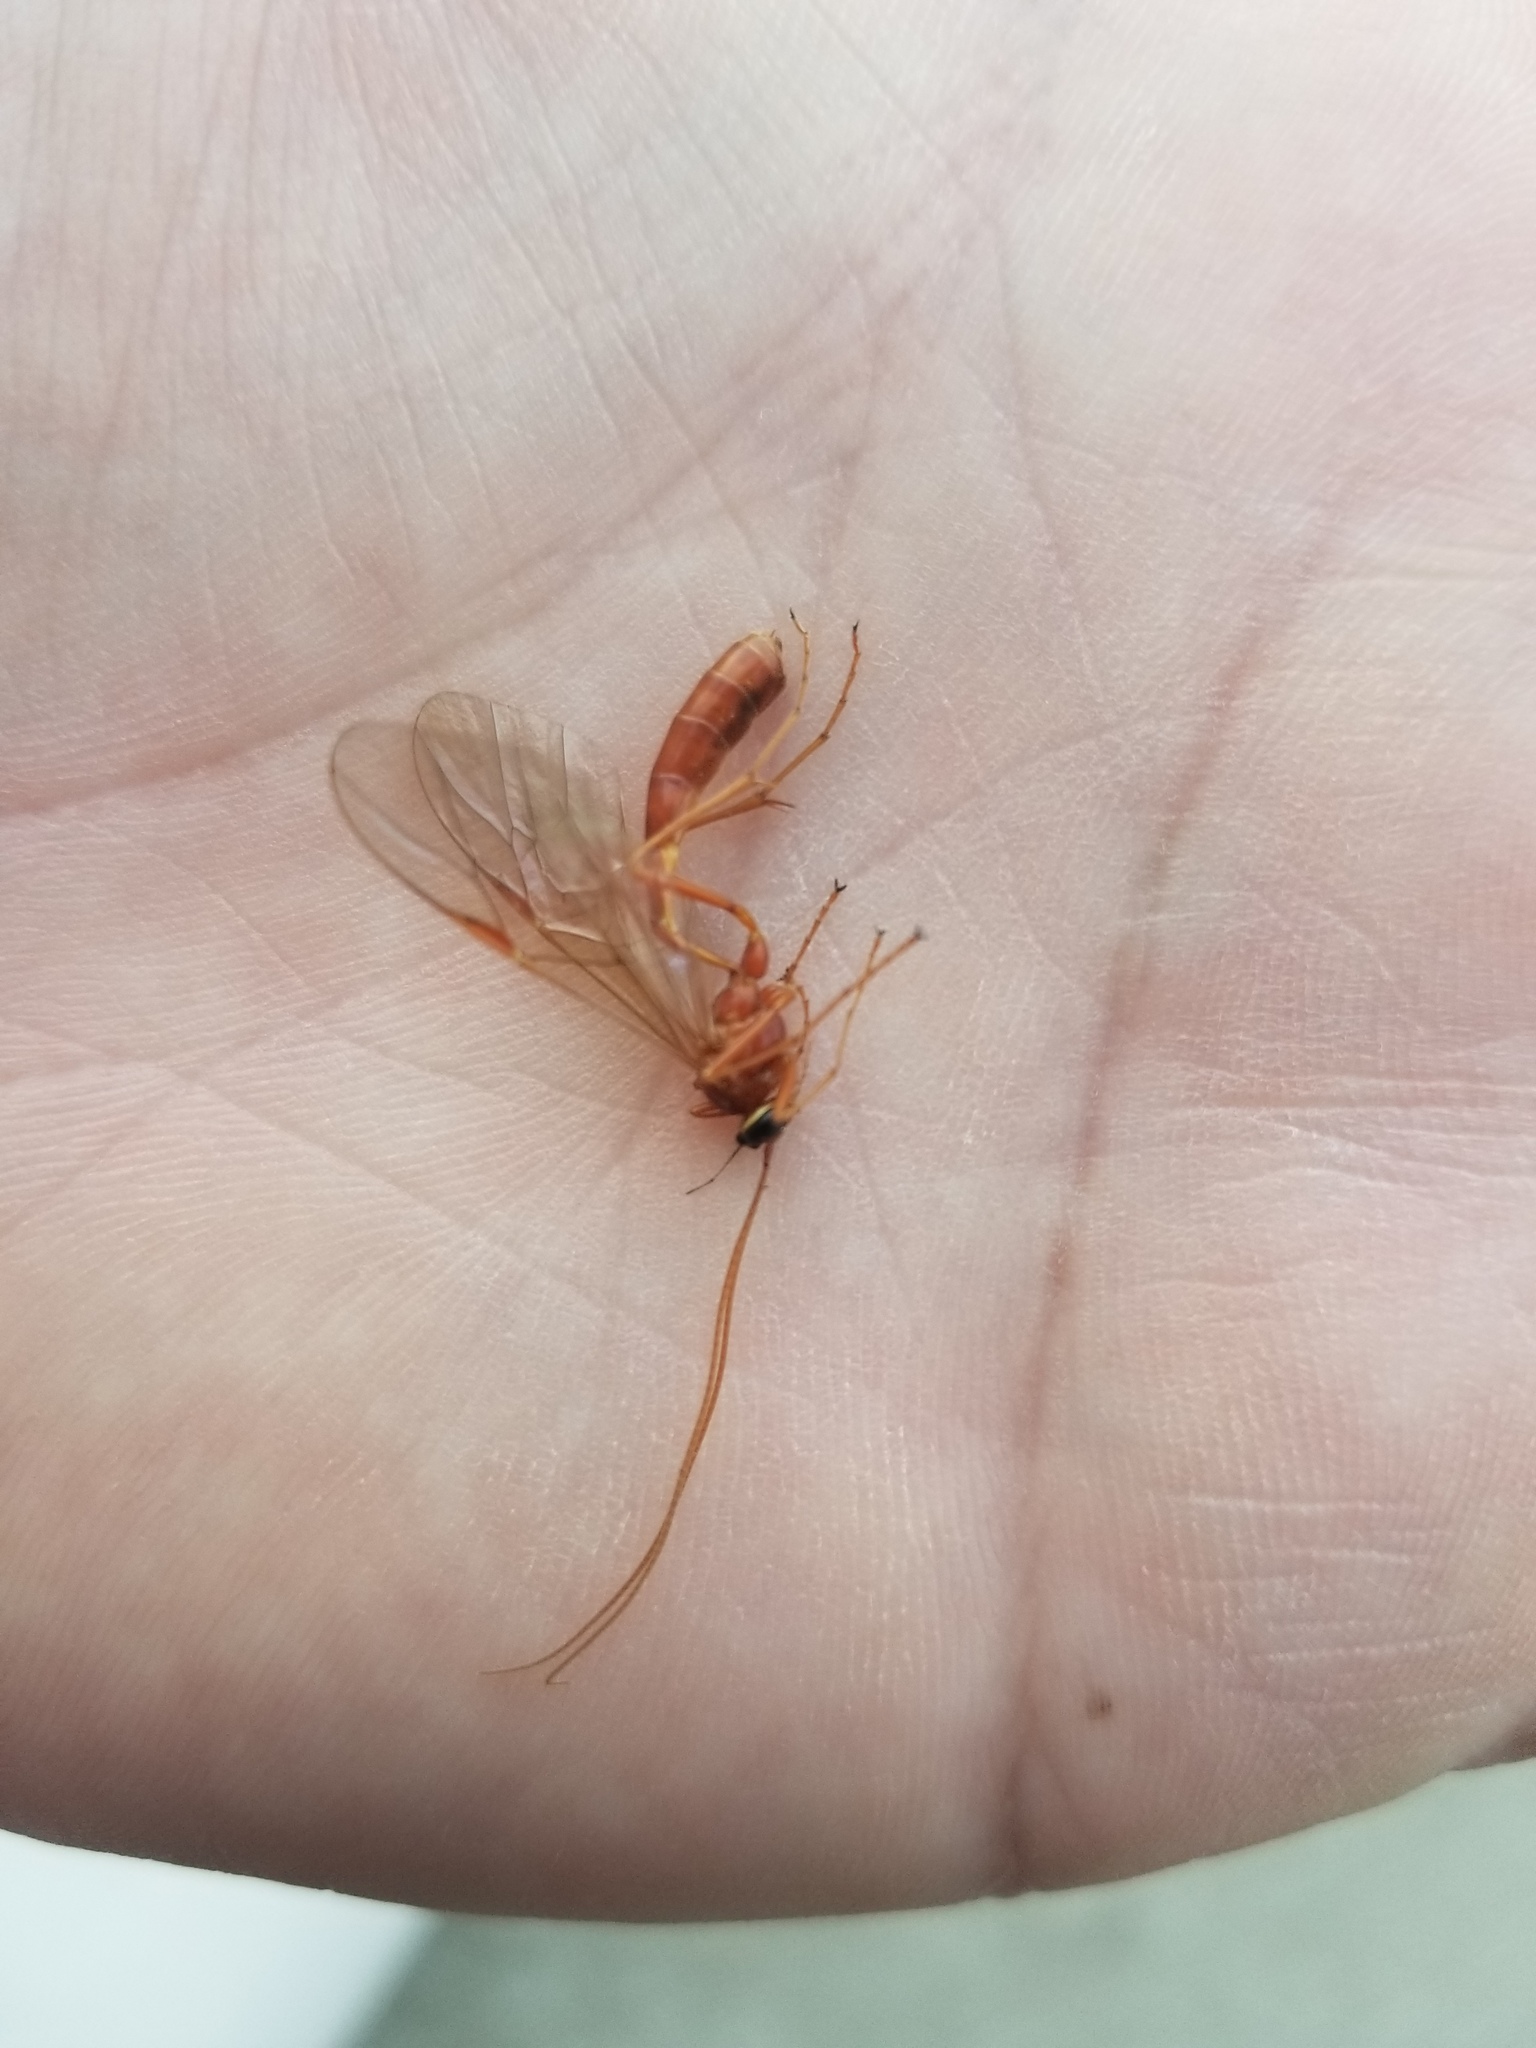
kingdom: Animalia
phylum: Arthropoda
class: Insecta
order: Hymenoptera
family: Ichneumonidae
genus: Ophion
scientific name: Ophion
